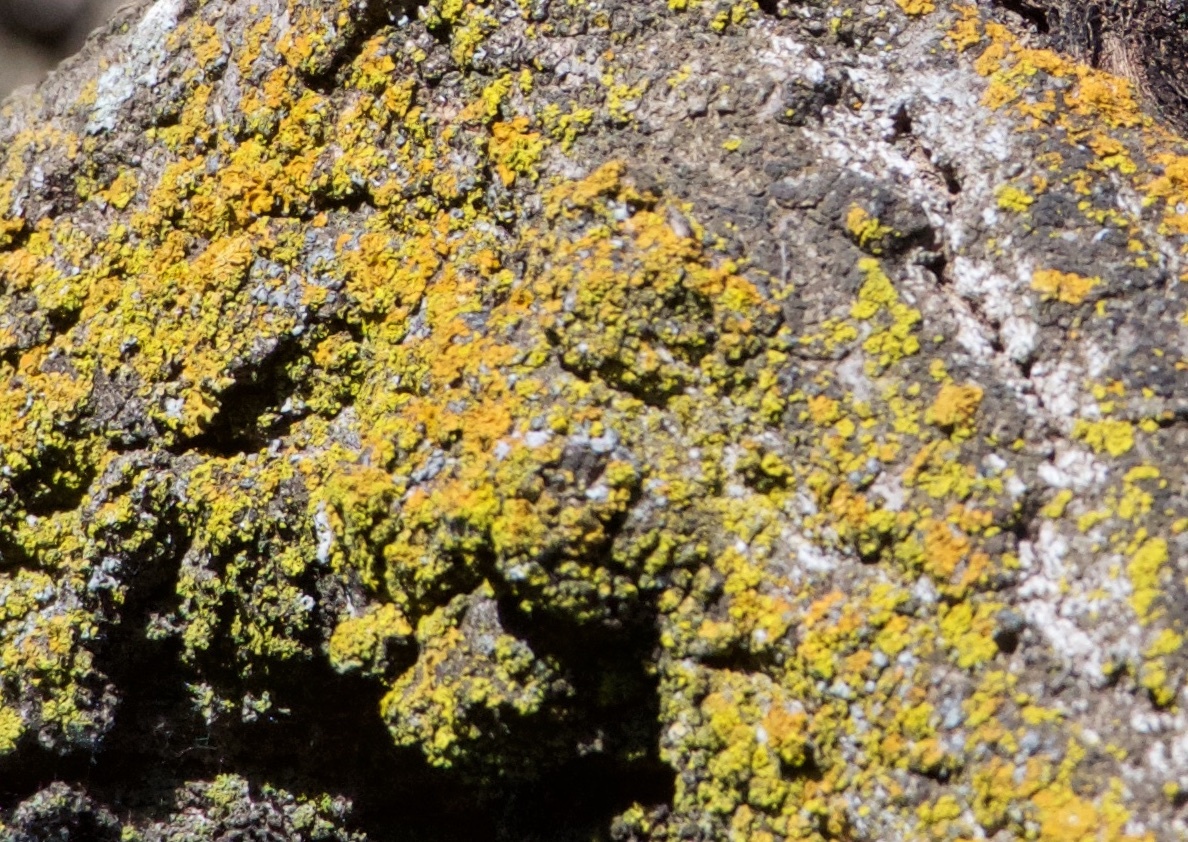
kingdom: Fungi
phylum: Ascomycota
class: Candelariomycetes
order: Candelariales
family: Candelariaceae
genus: Candelaria
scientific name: Candelaria concolor
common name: Candleflame lichen
